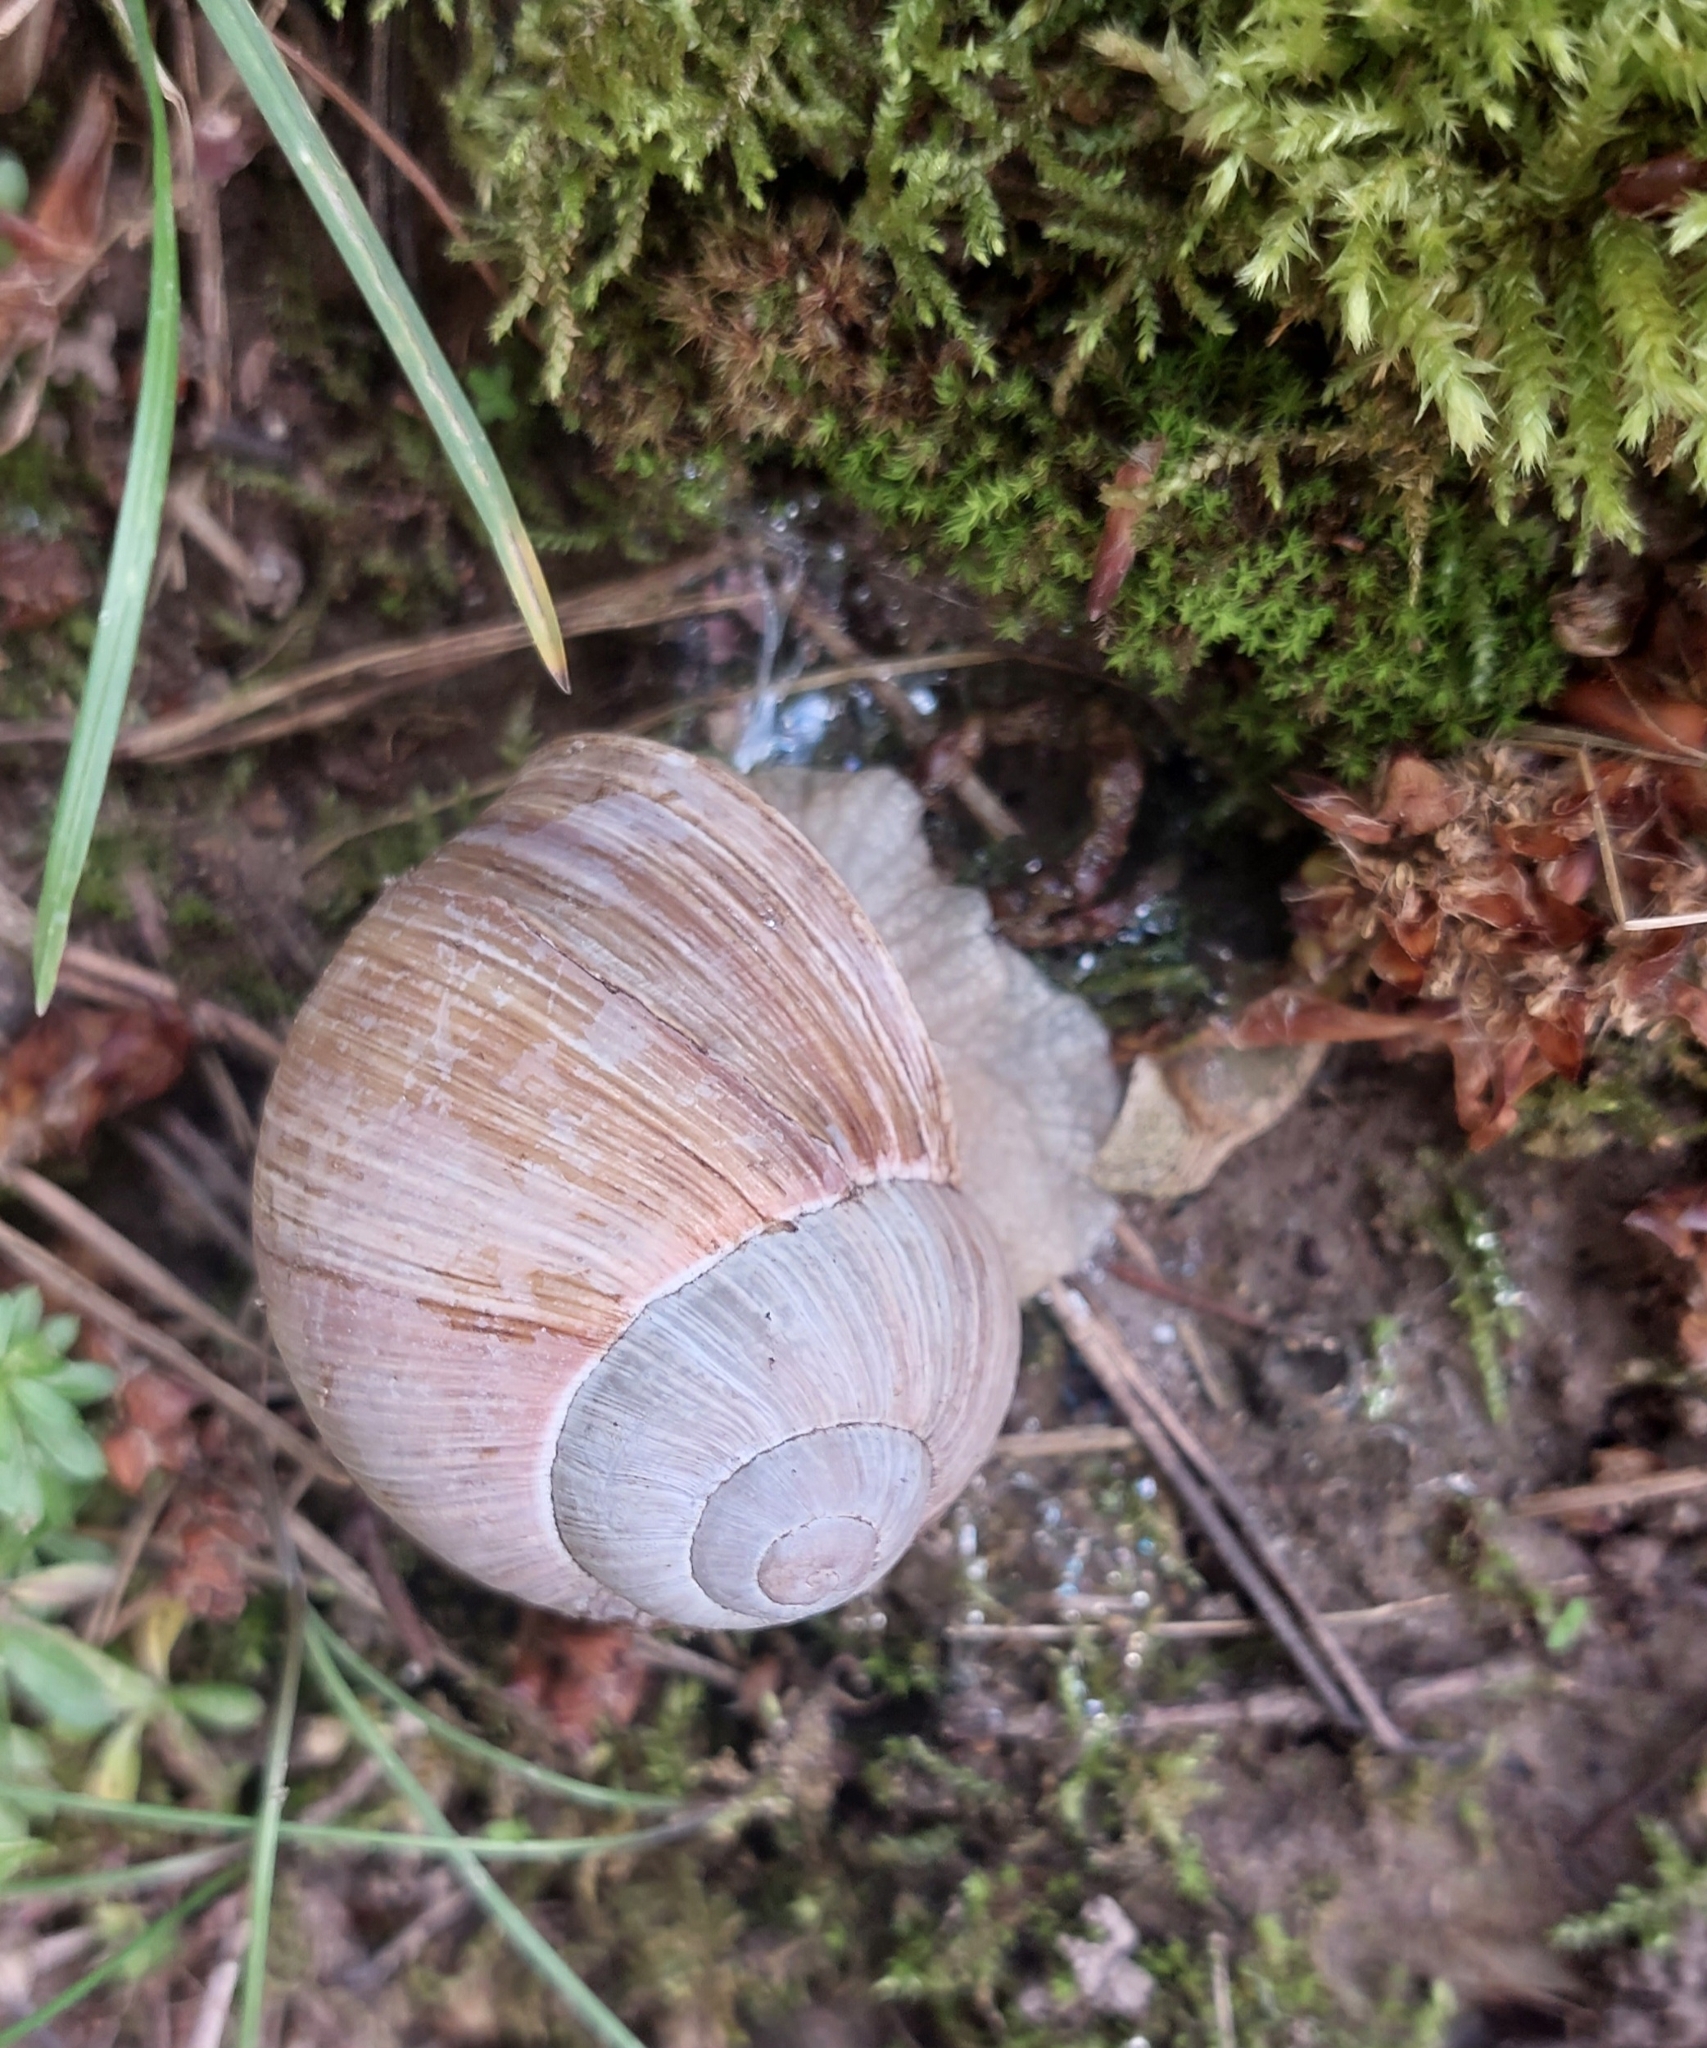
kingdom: Animalia
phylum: Mollusca
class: Gastropoda
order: Stylommatophora
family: Helicidae
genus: Helix
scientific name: Helix pomatia
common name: Roman snail
